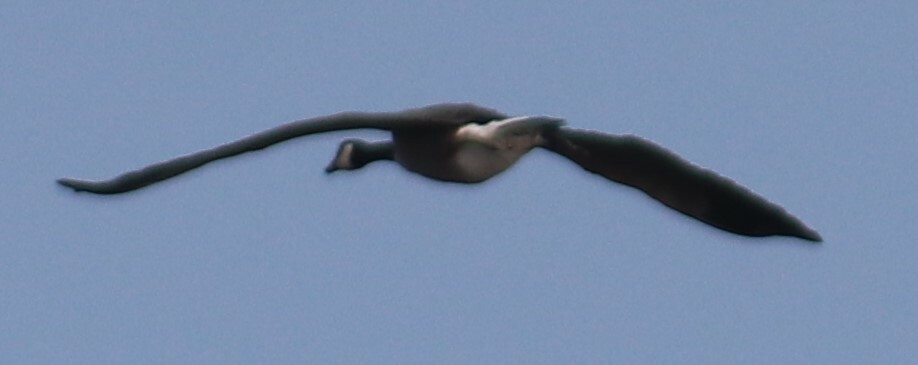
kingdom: Animalia
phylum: Chordata
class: Aves
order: Anseriformes
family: Anatidae
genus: Branta
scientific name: Branta canadensis
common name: Canada goose
